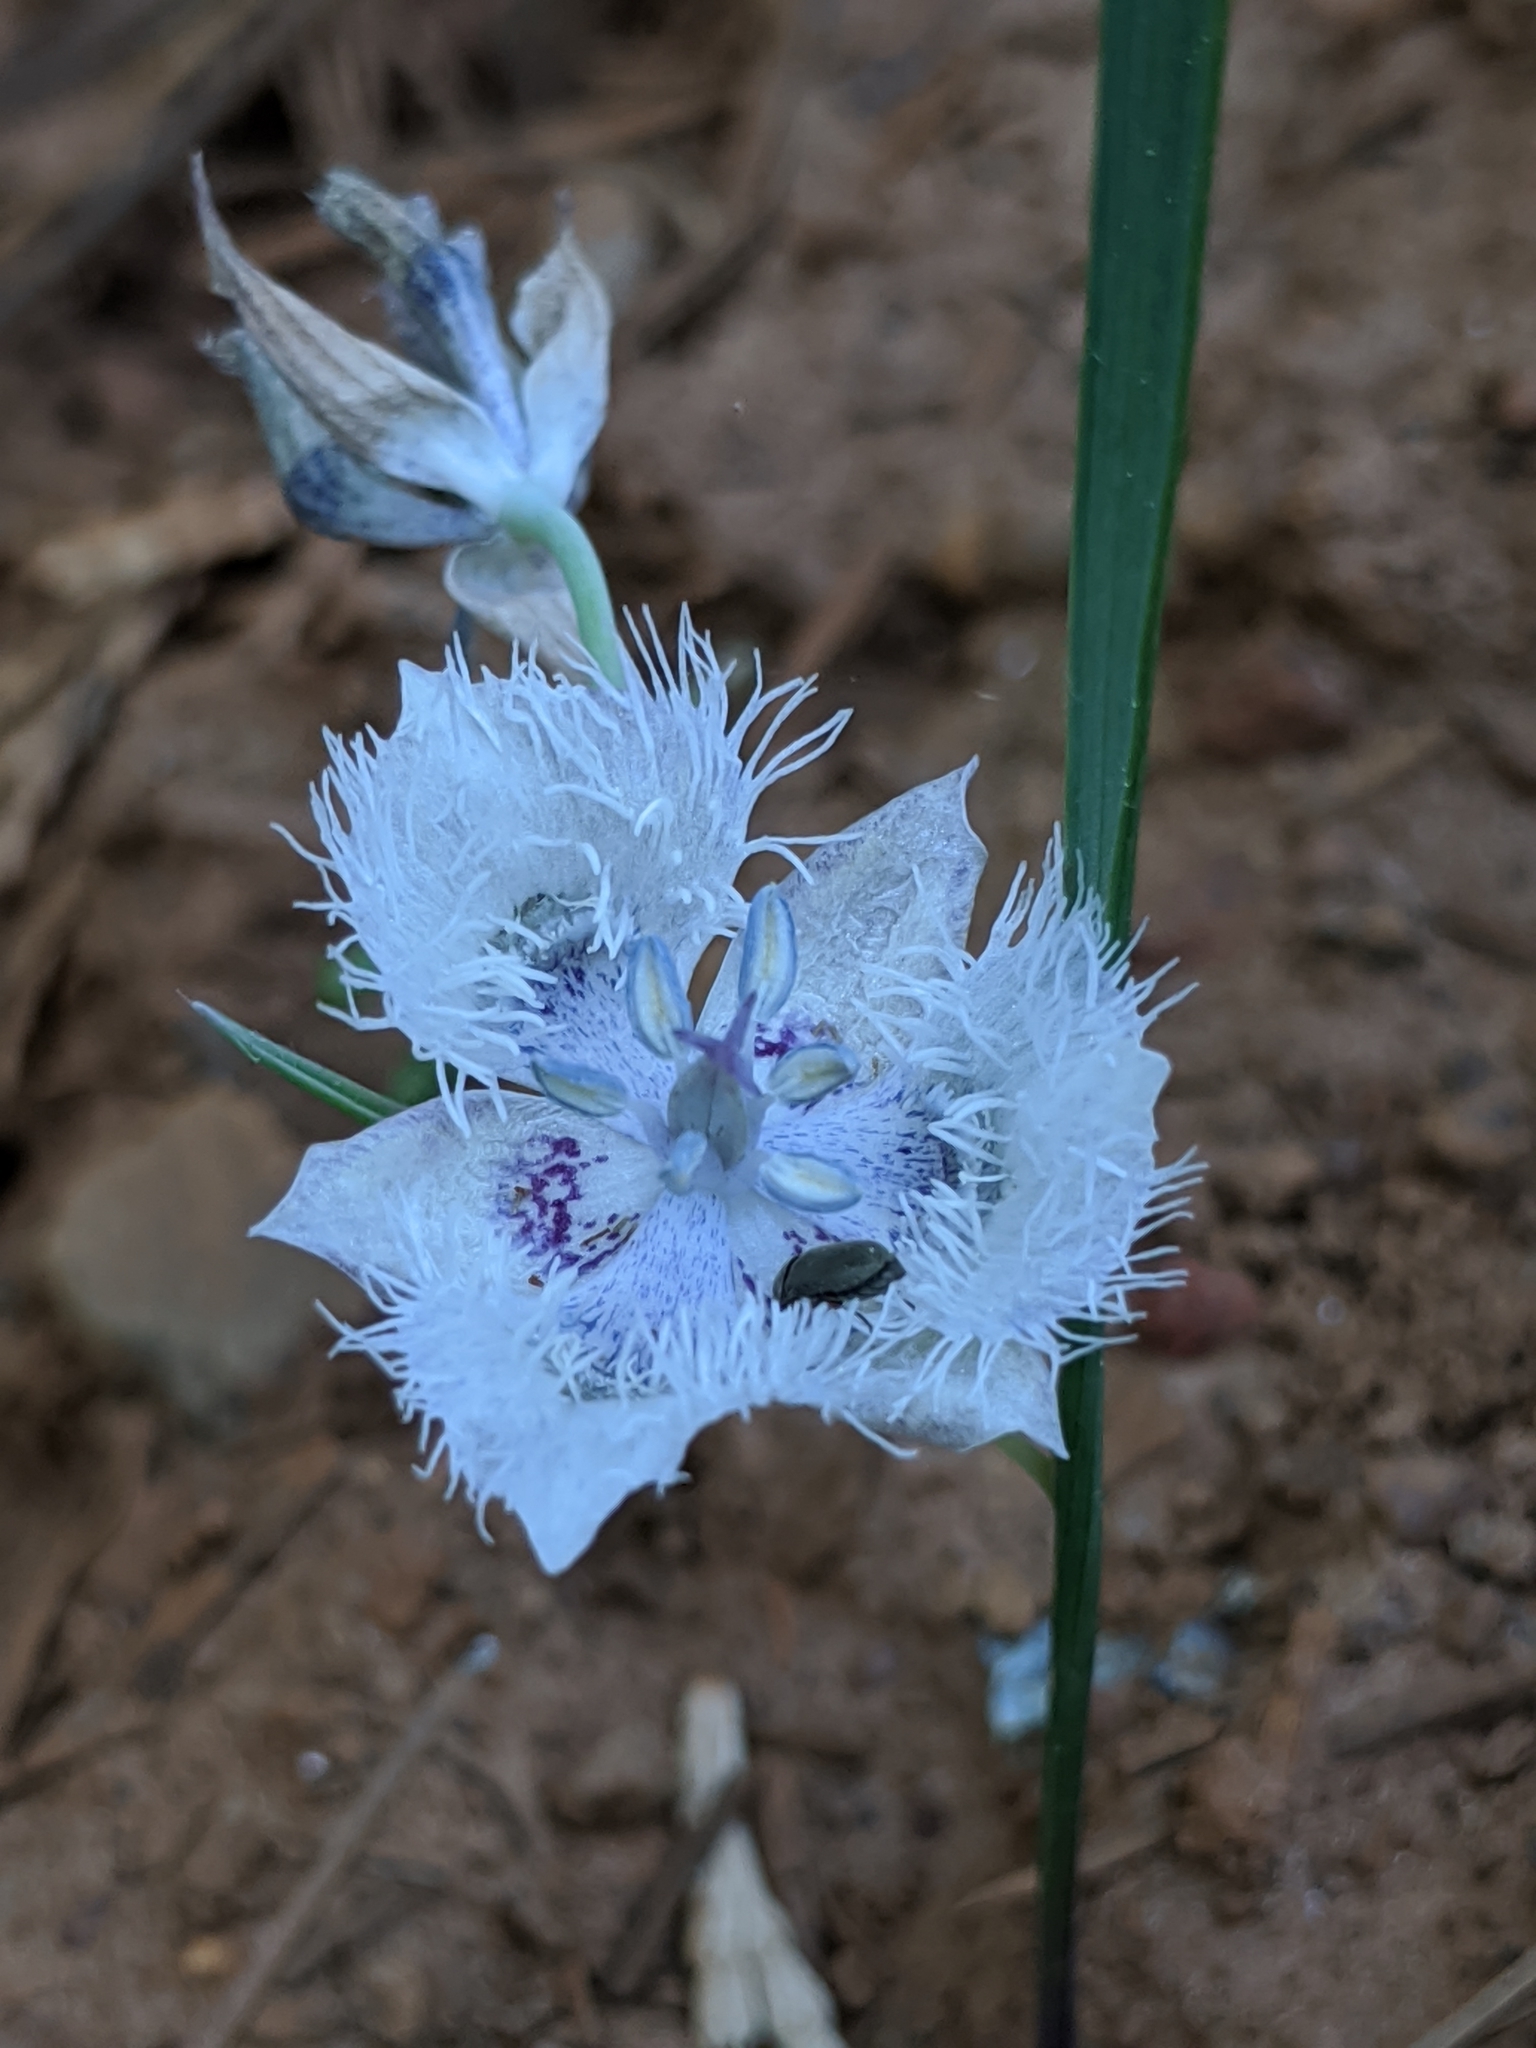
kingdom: Plantae
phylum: Tracheophyta
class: Liliopsida
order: Liliales
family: Liliaceae
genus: Calochortus
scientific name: Calochortus coeruleus
